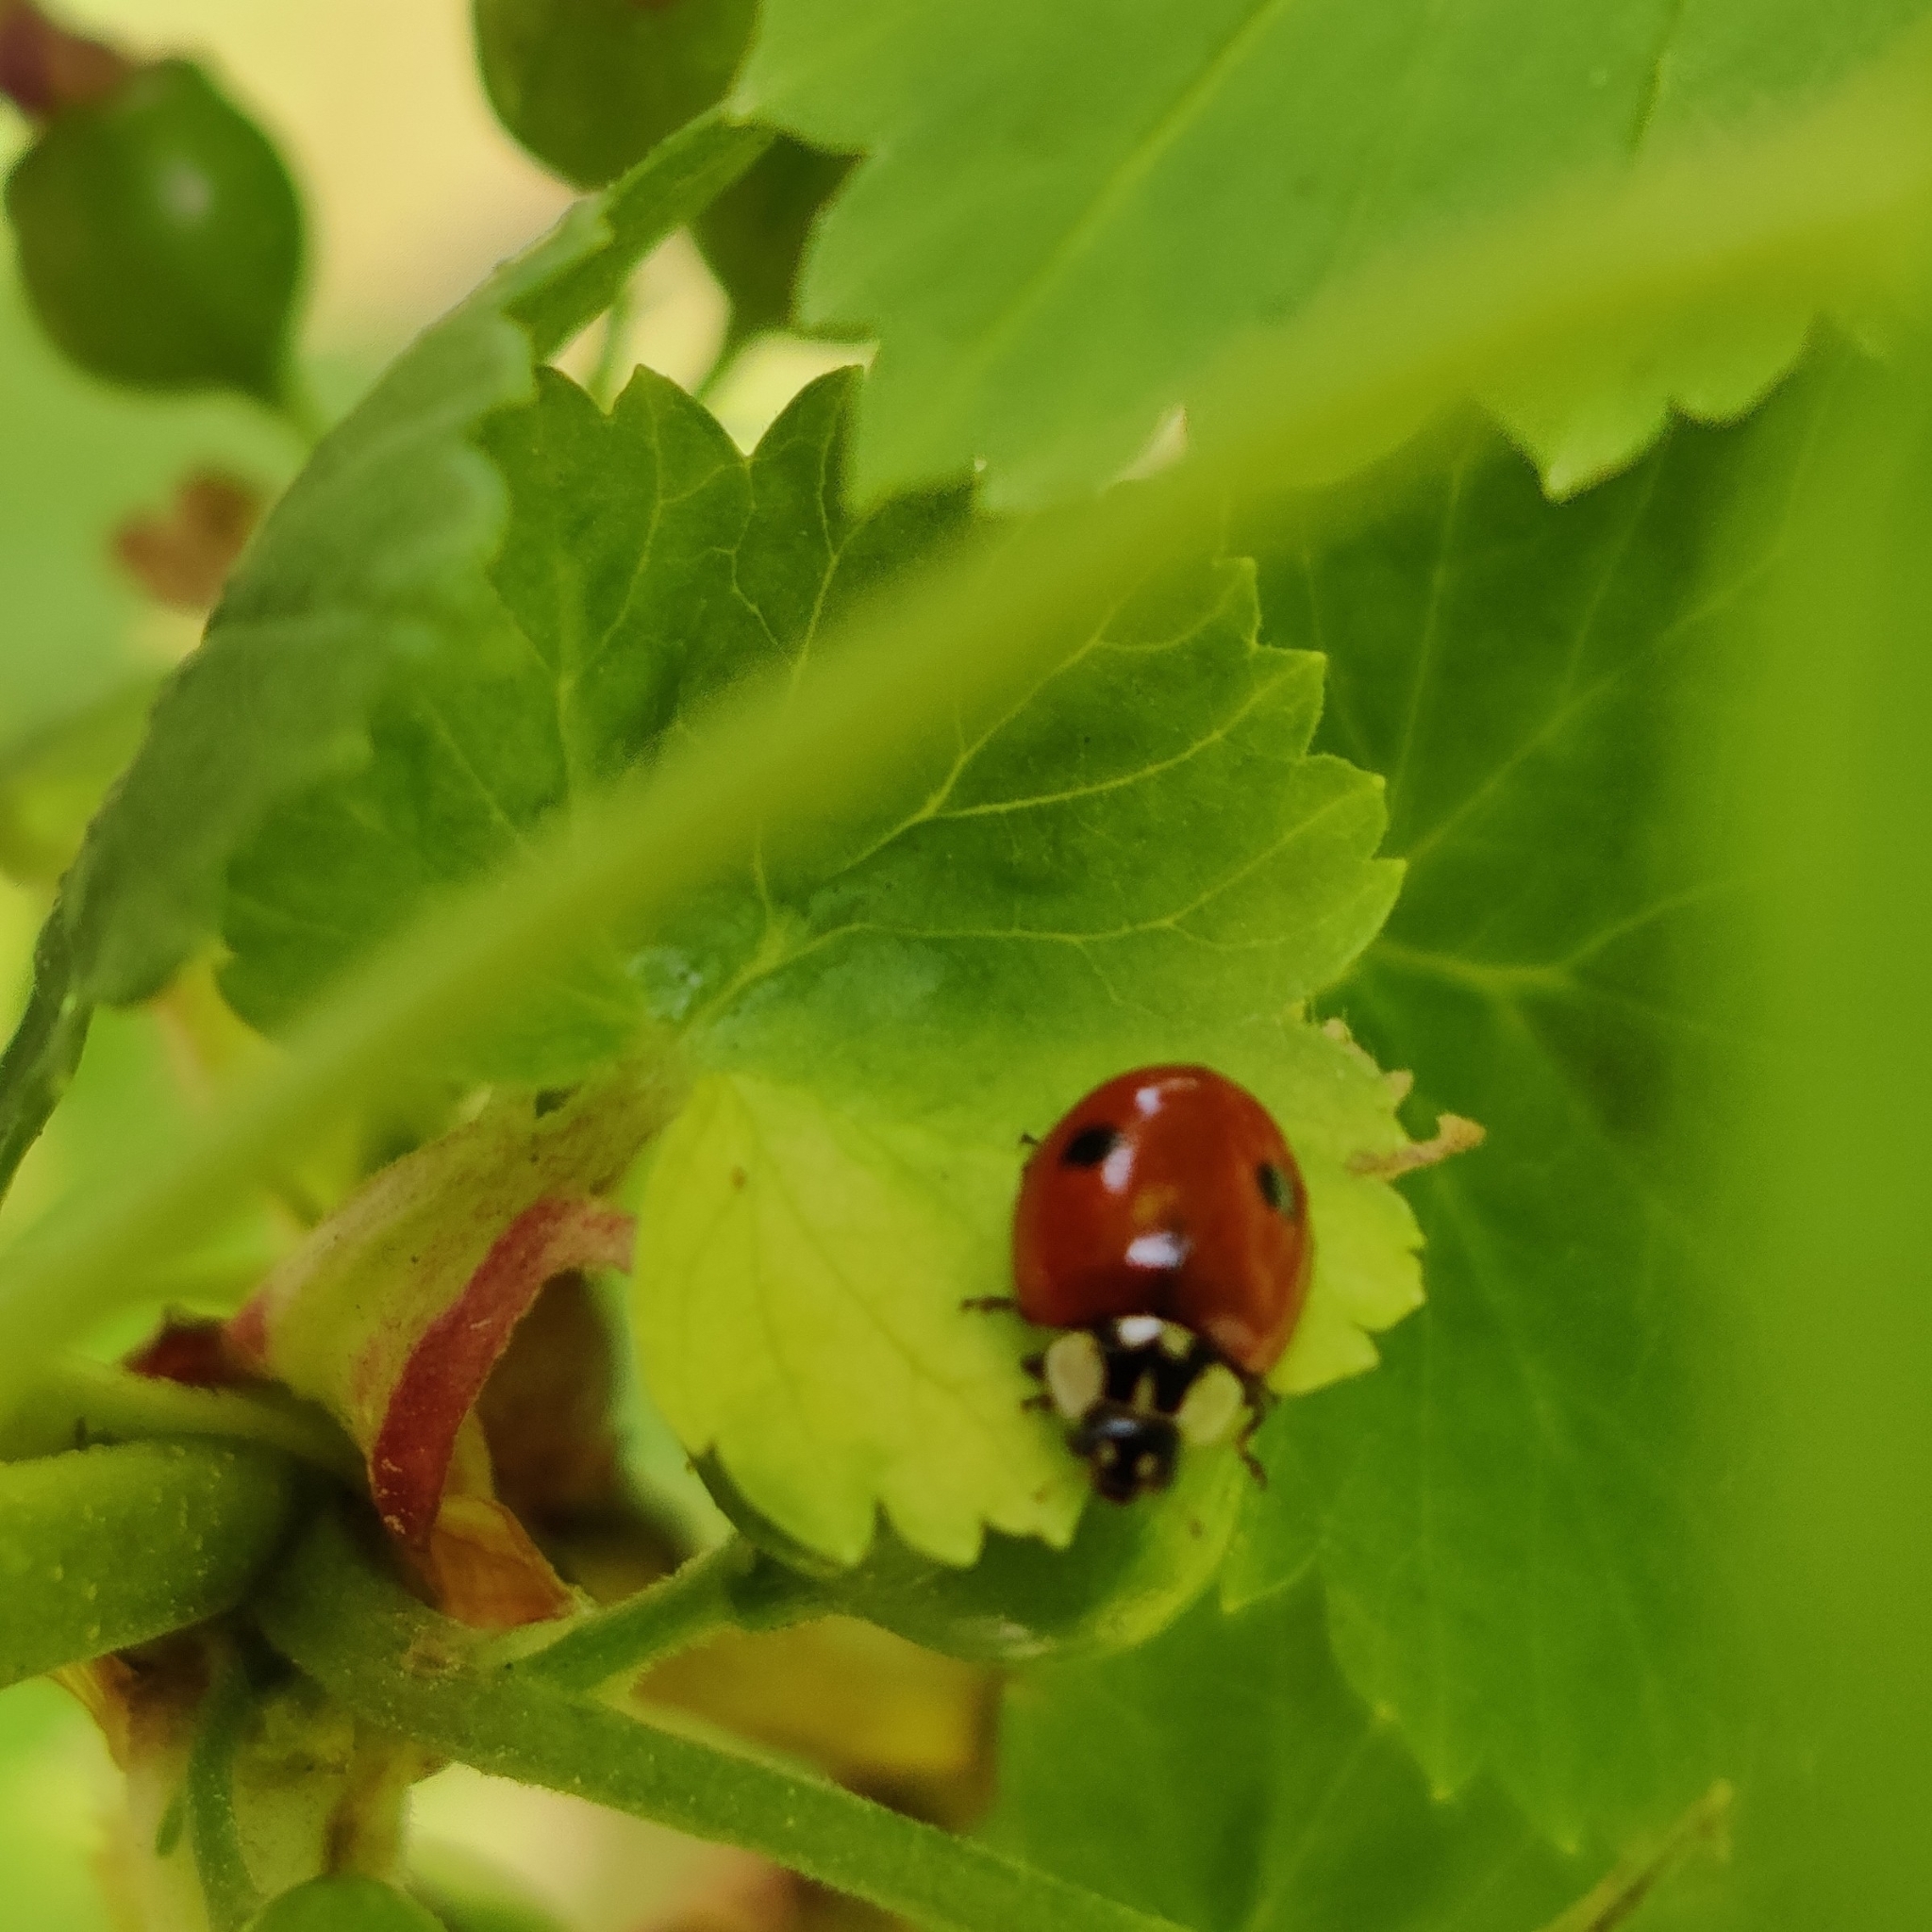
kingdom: Animalia
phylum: Arthropoda
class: Insecta
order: Coleoptera
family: Coccinellidae
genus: Adalia
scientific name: Adalia bipunctata
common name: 2-spot ladybird
